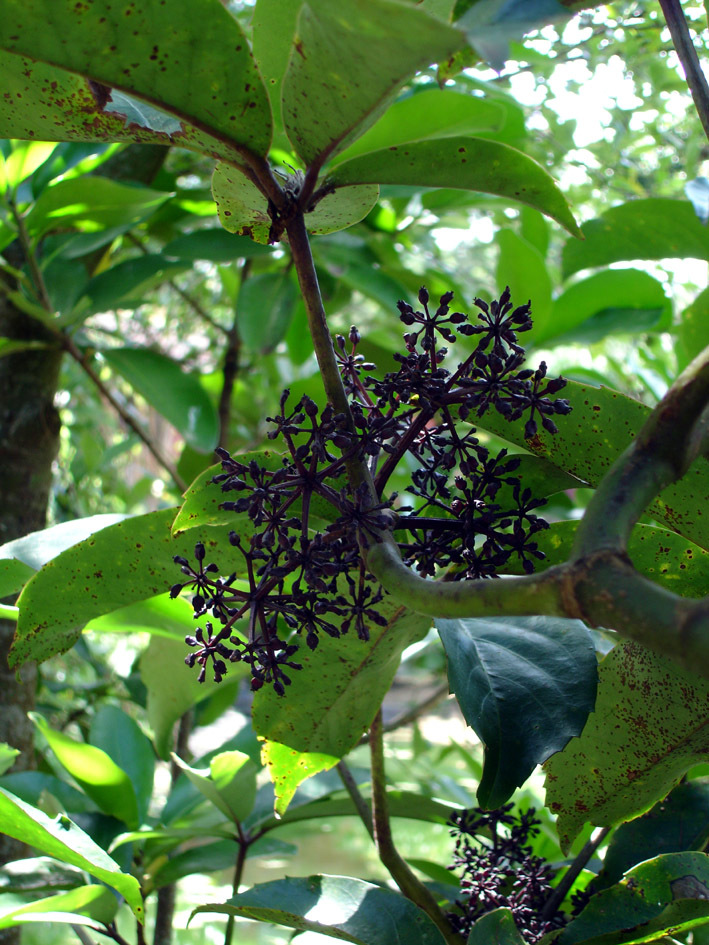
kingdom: Plantae
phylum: Tracheophyta
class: Magnoliopsida
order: Apiales
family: Araliaceae
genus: Neopanax
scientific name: Neopanax laetus
